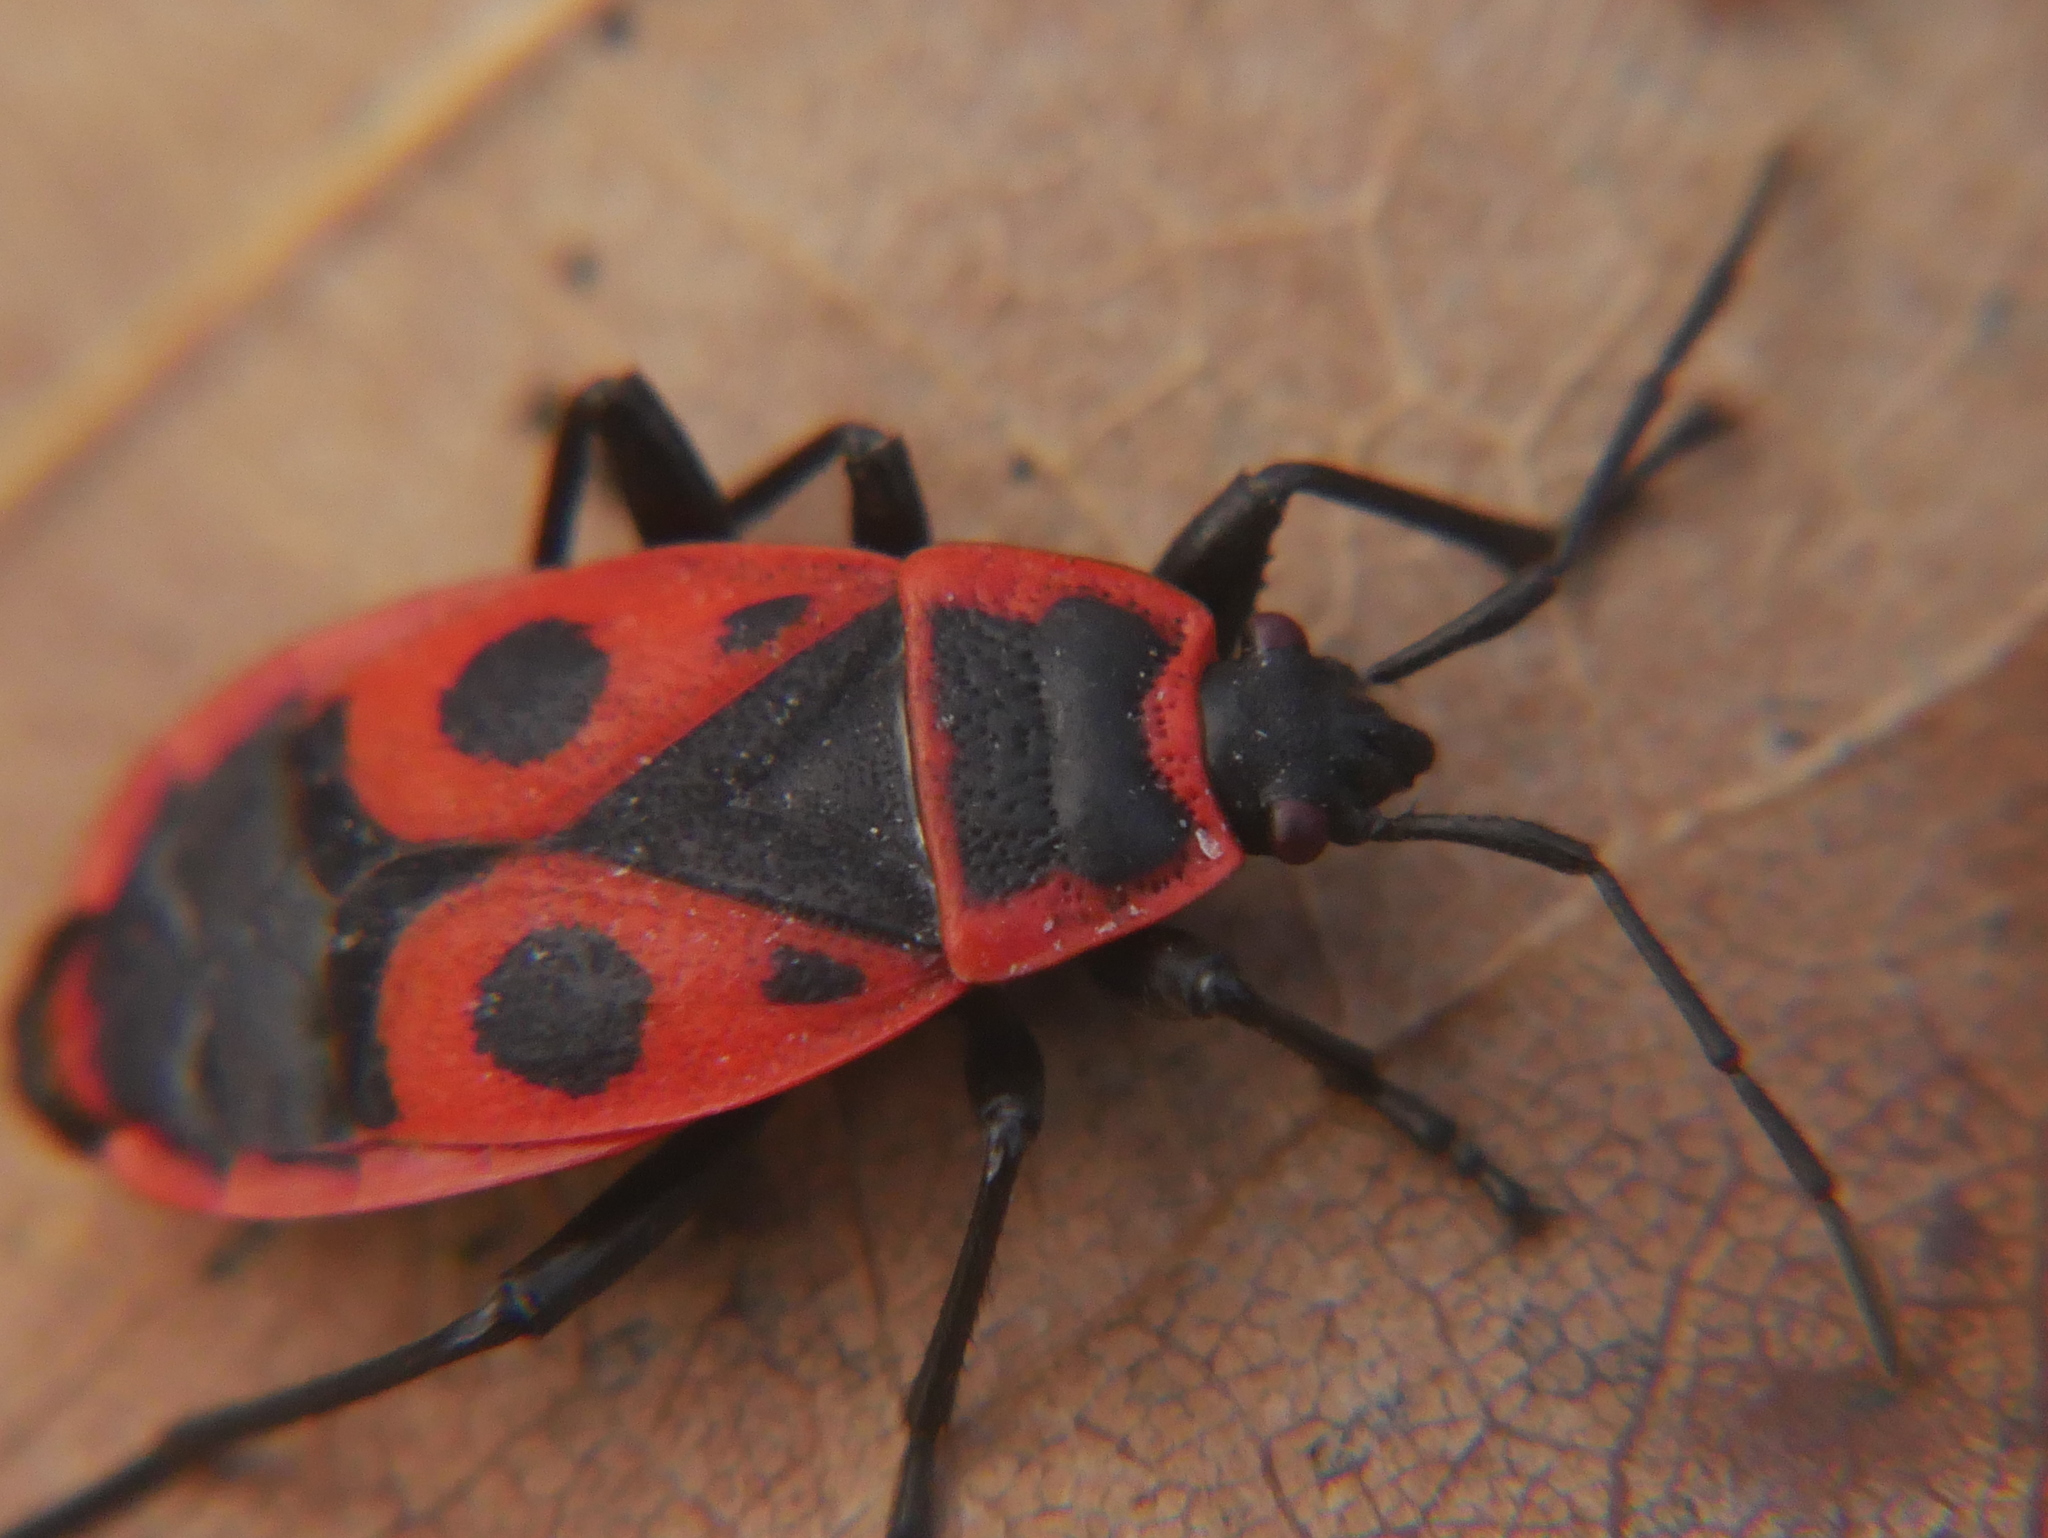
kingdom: Animalia
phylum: Arthropoda
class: Insecta
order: Hemiptera
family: Pyrrhocoridae
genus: Pyrrhocoris
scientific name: Pyrrhocoris apterus
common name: Firebug
